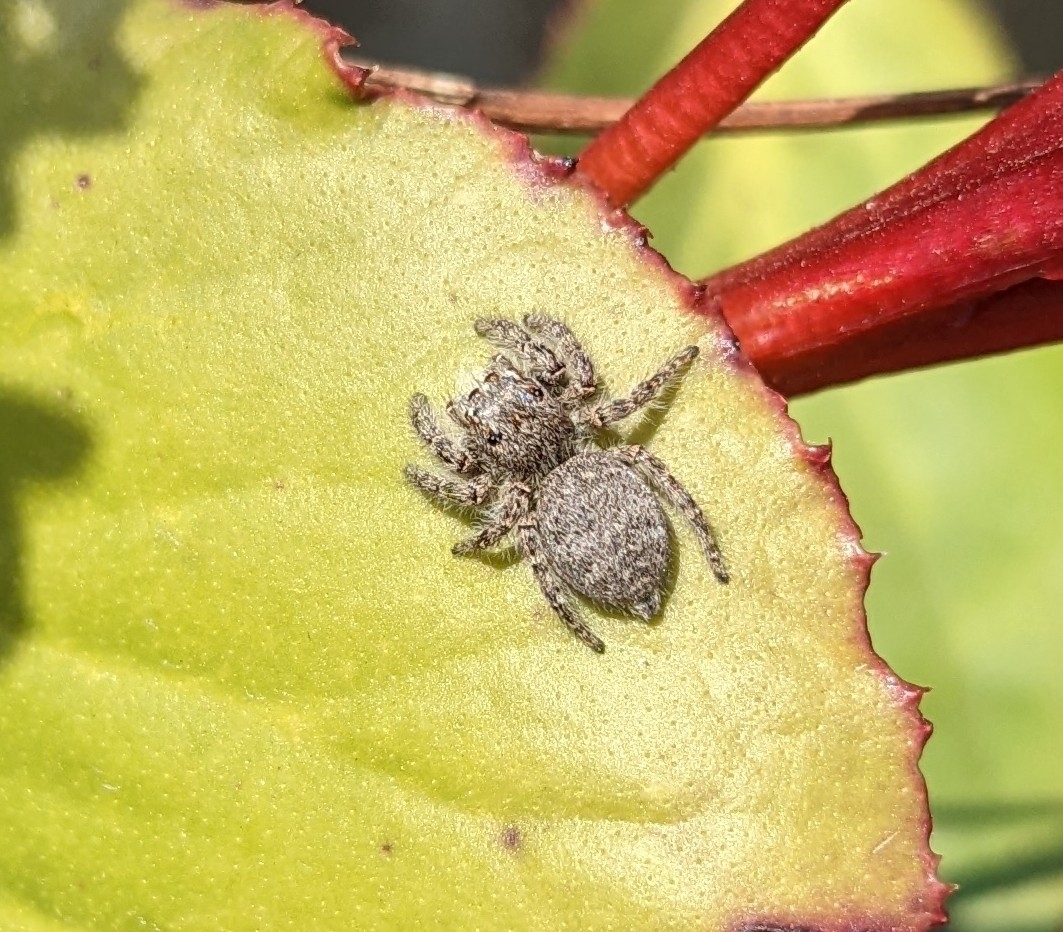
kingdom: Animalia
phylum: Arthropoda
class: Arachnida
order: Araneae
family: Salticidae
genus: Philaeus
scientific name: Philaeus chrysops
